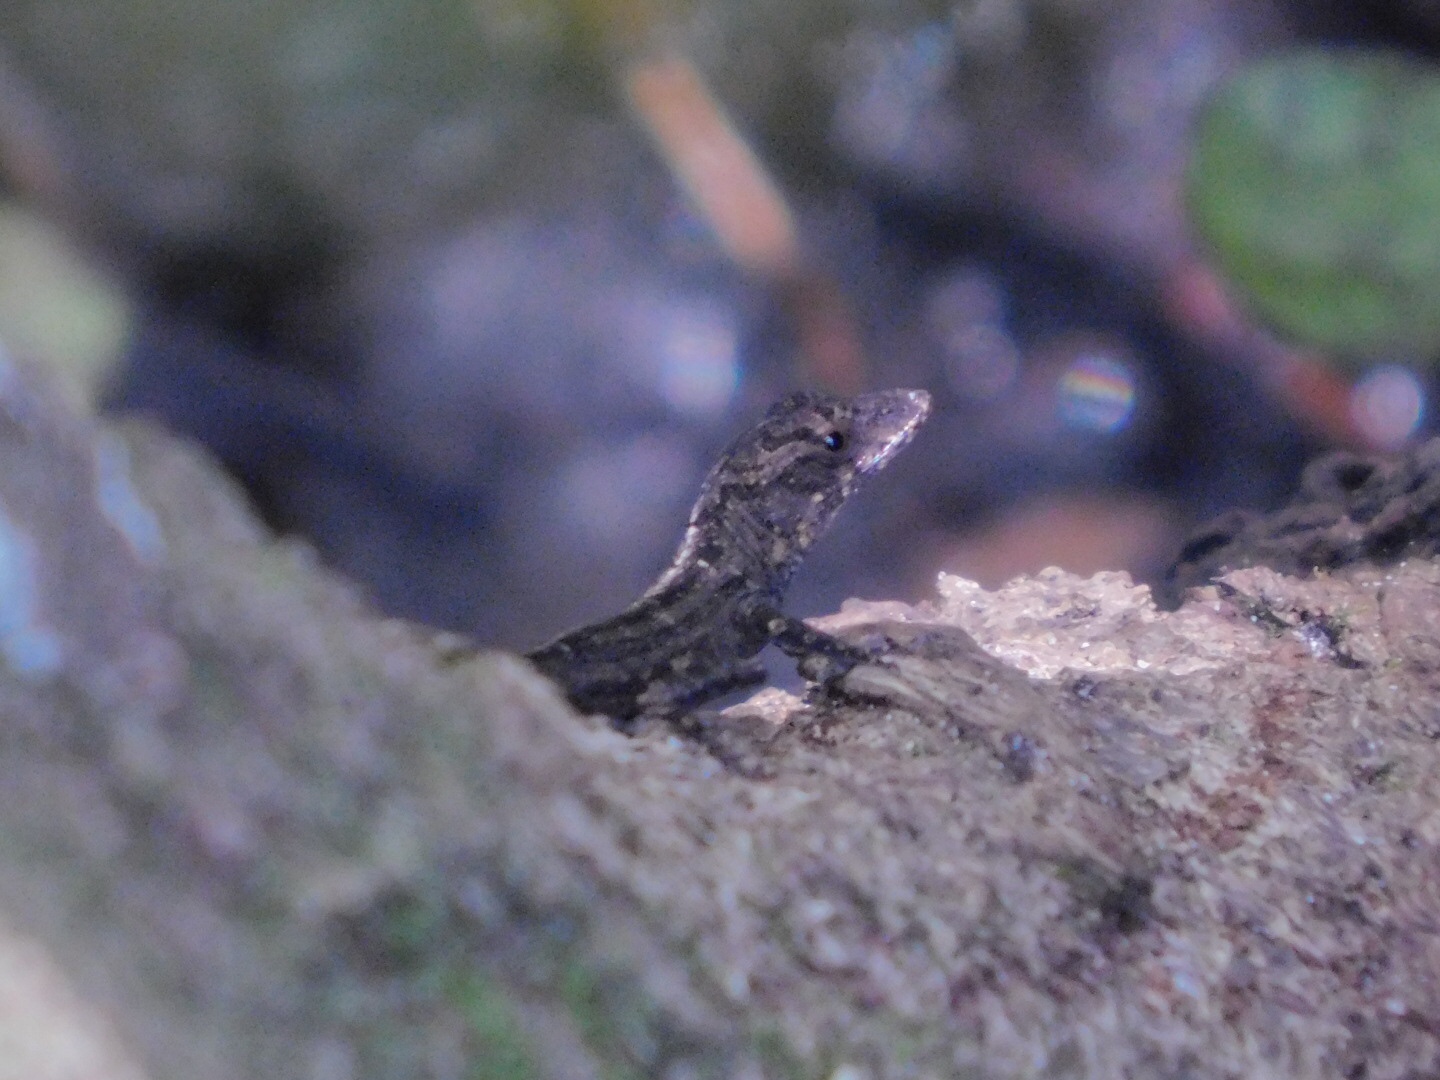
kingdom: Animalia
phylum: Chordata
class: Squamata
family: Dactyloidae
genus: Anolis
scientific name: Anolis sagrei
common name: Brown anole
